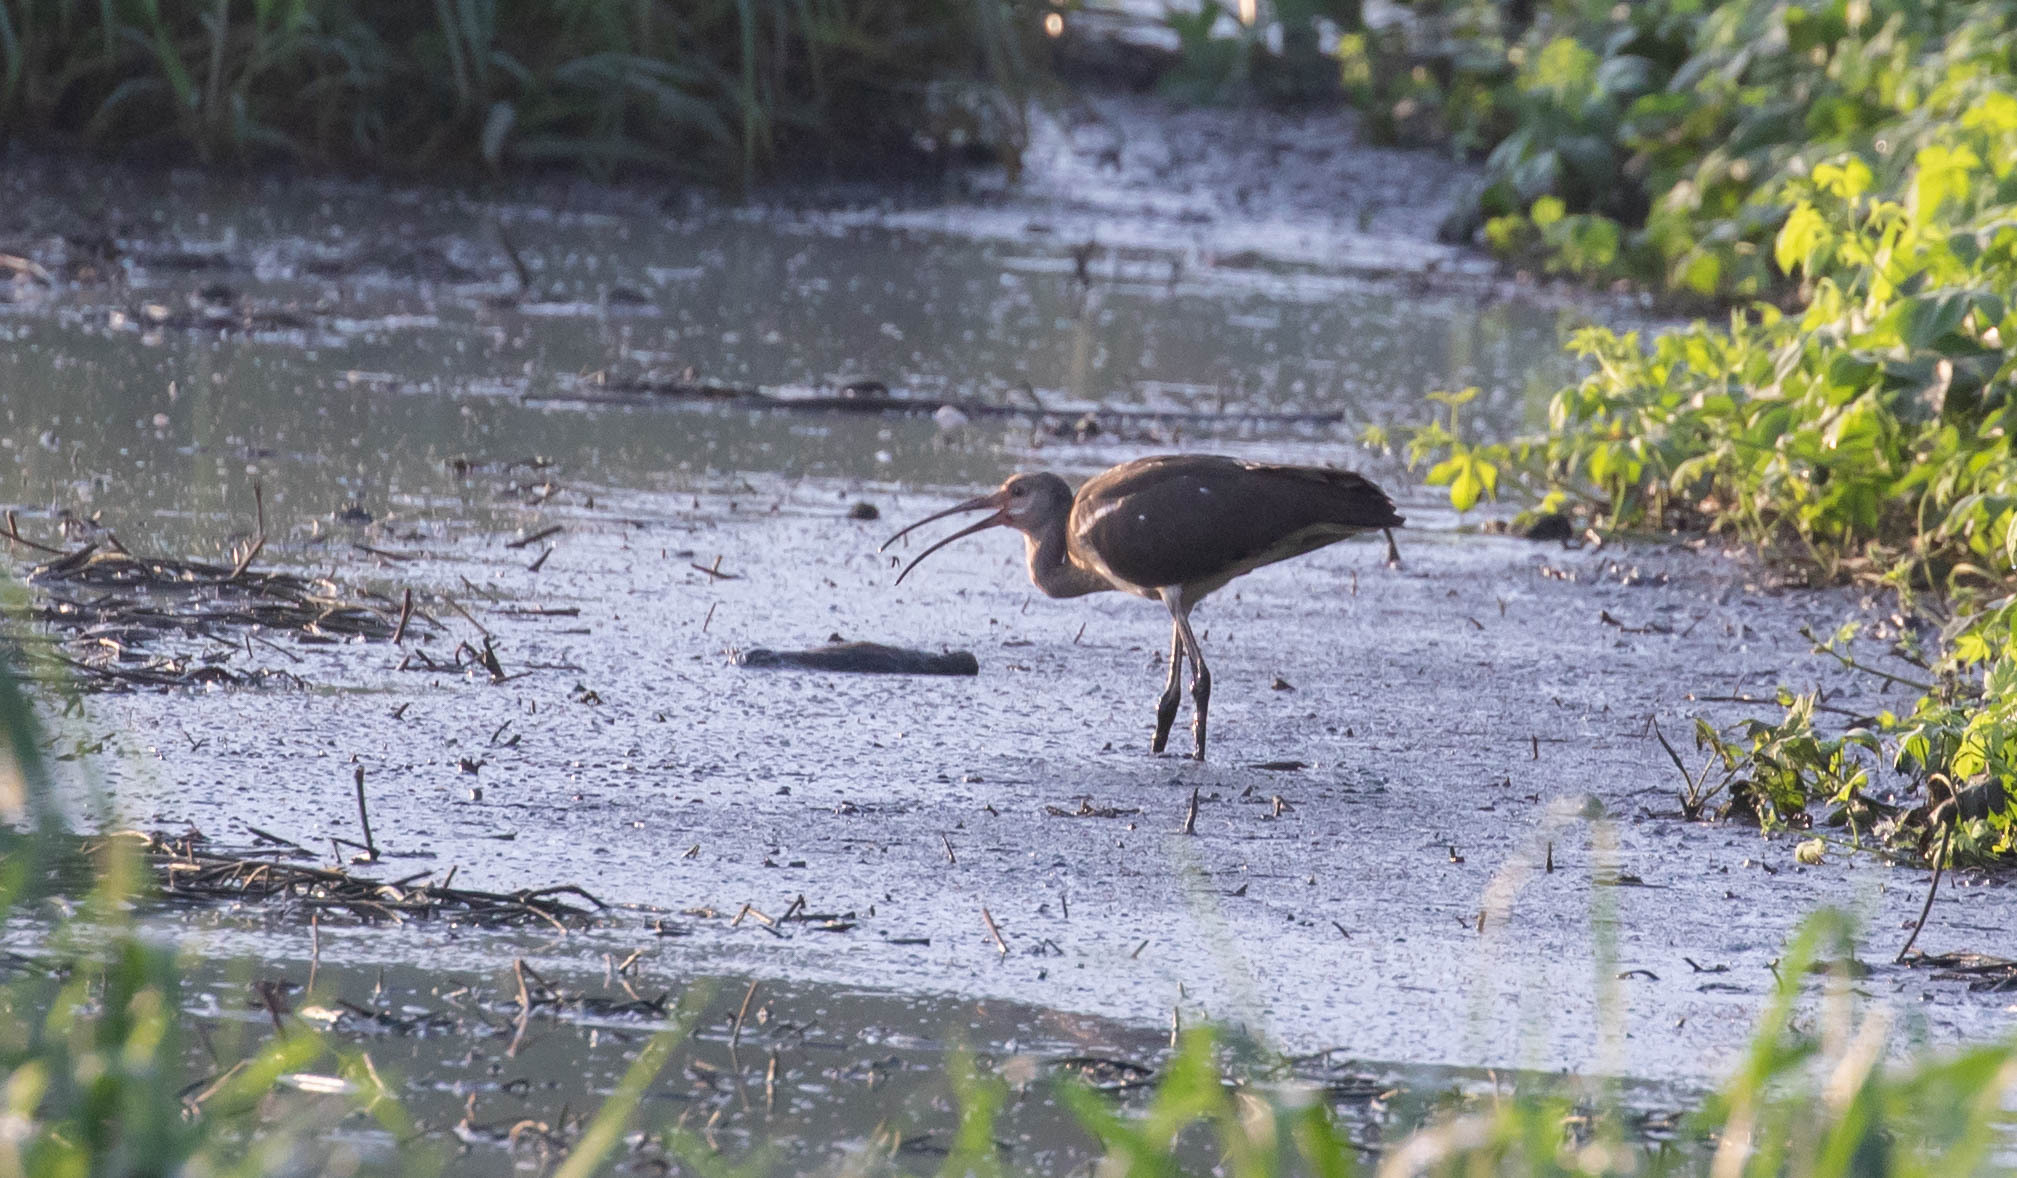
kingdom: Animalia
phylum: Chordata
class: Aves
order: Pelecaniformes
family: Threskiornithidae
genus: Eudocimus
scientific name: Eudocimus albus
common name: White ibis
